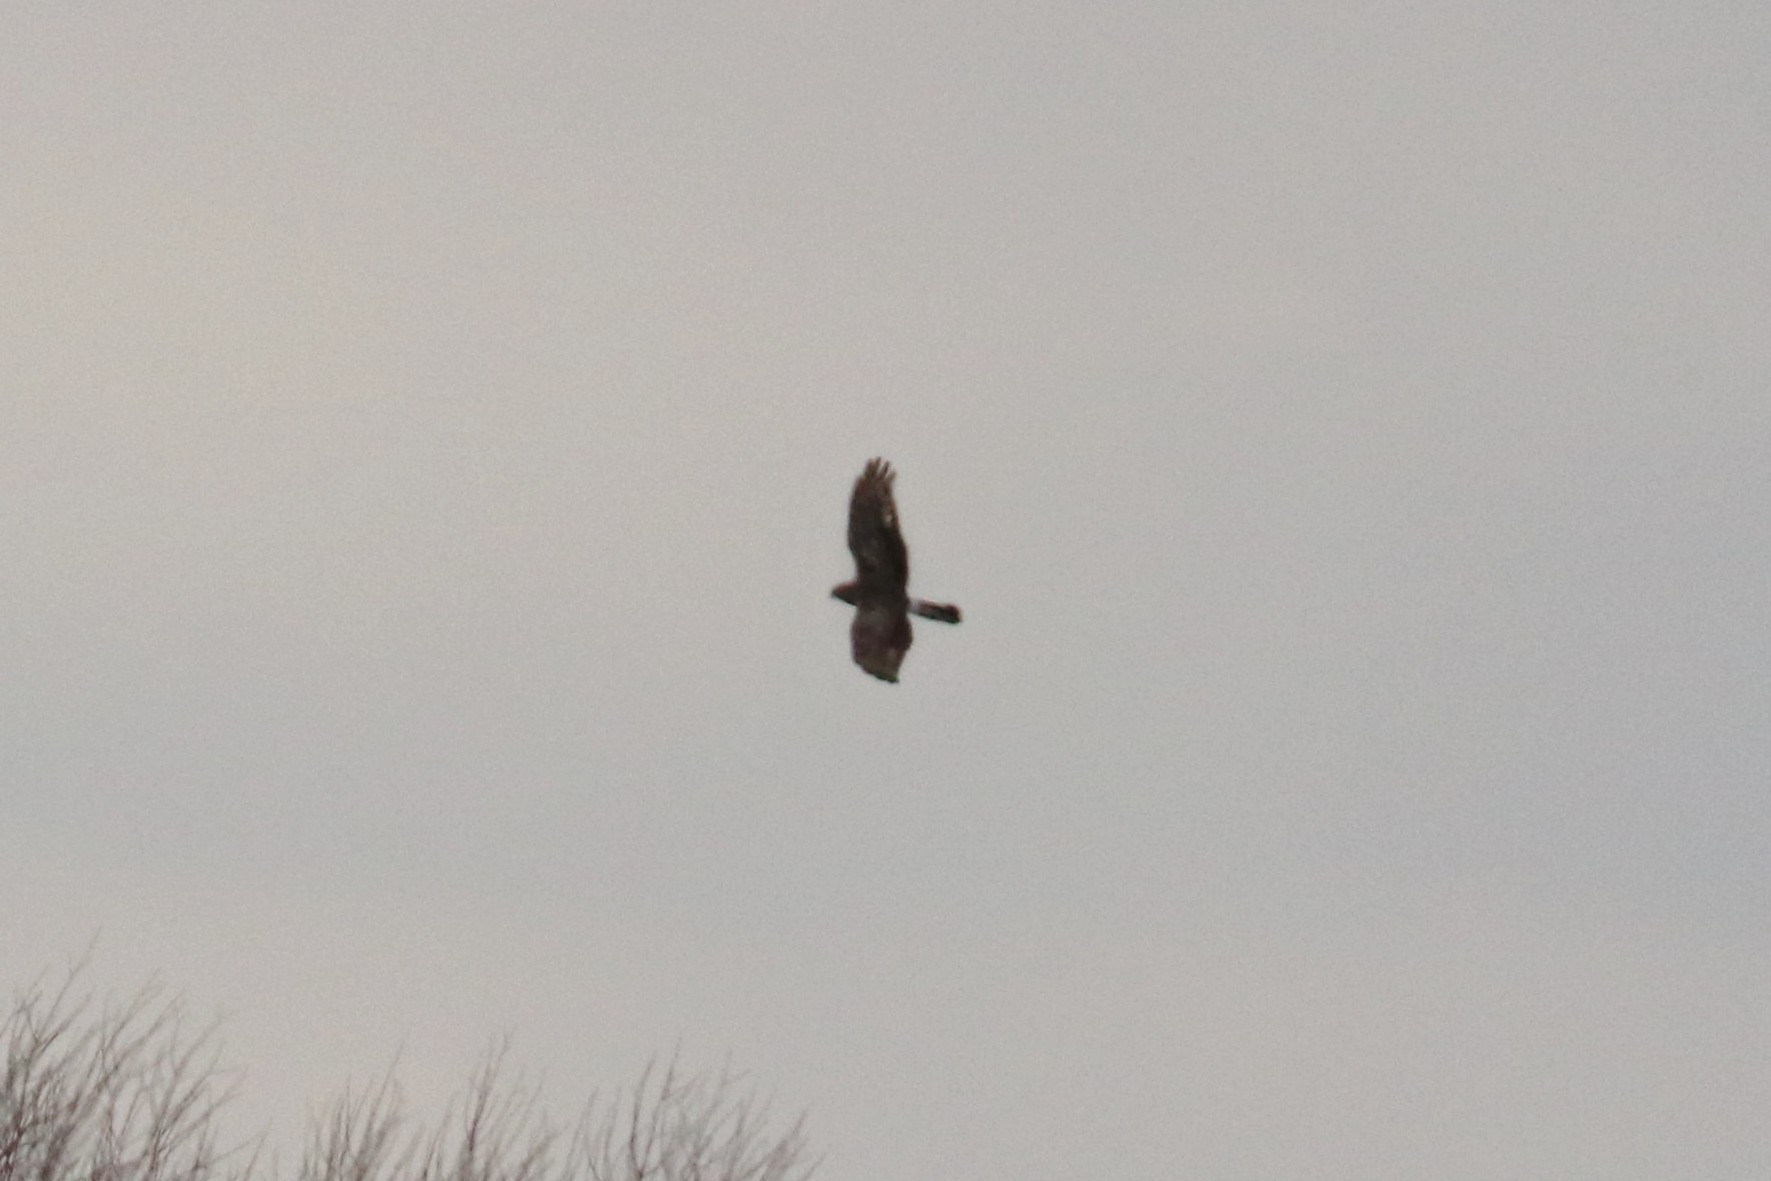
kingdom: Animalia
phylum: Chordata
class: Aves
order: Accipitriformes
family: Accipitridae
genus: Circus
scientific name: Circus cyaneus
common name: Hen harrier
